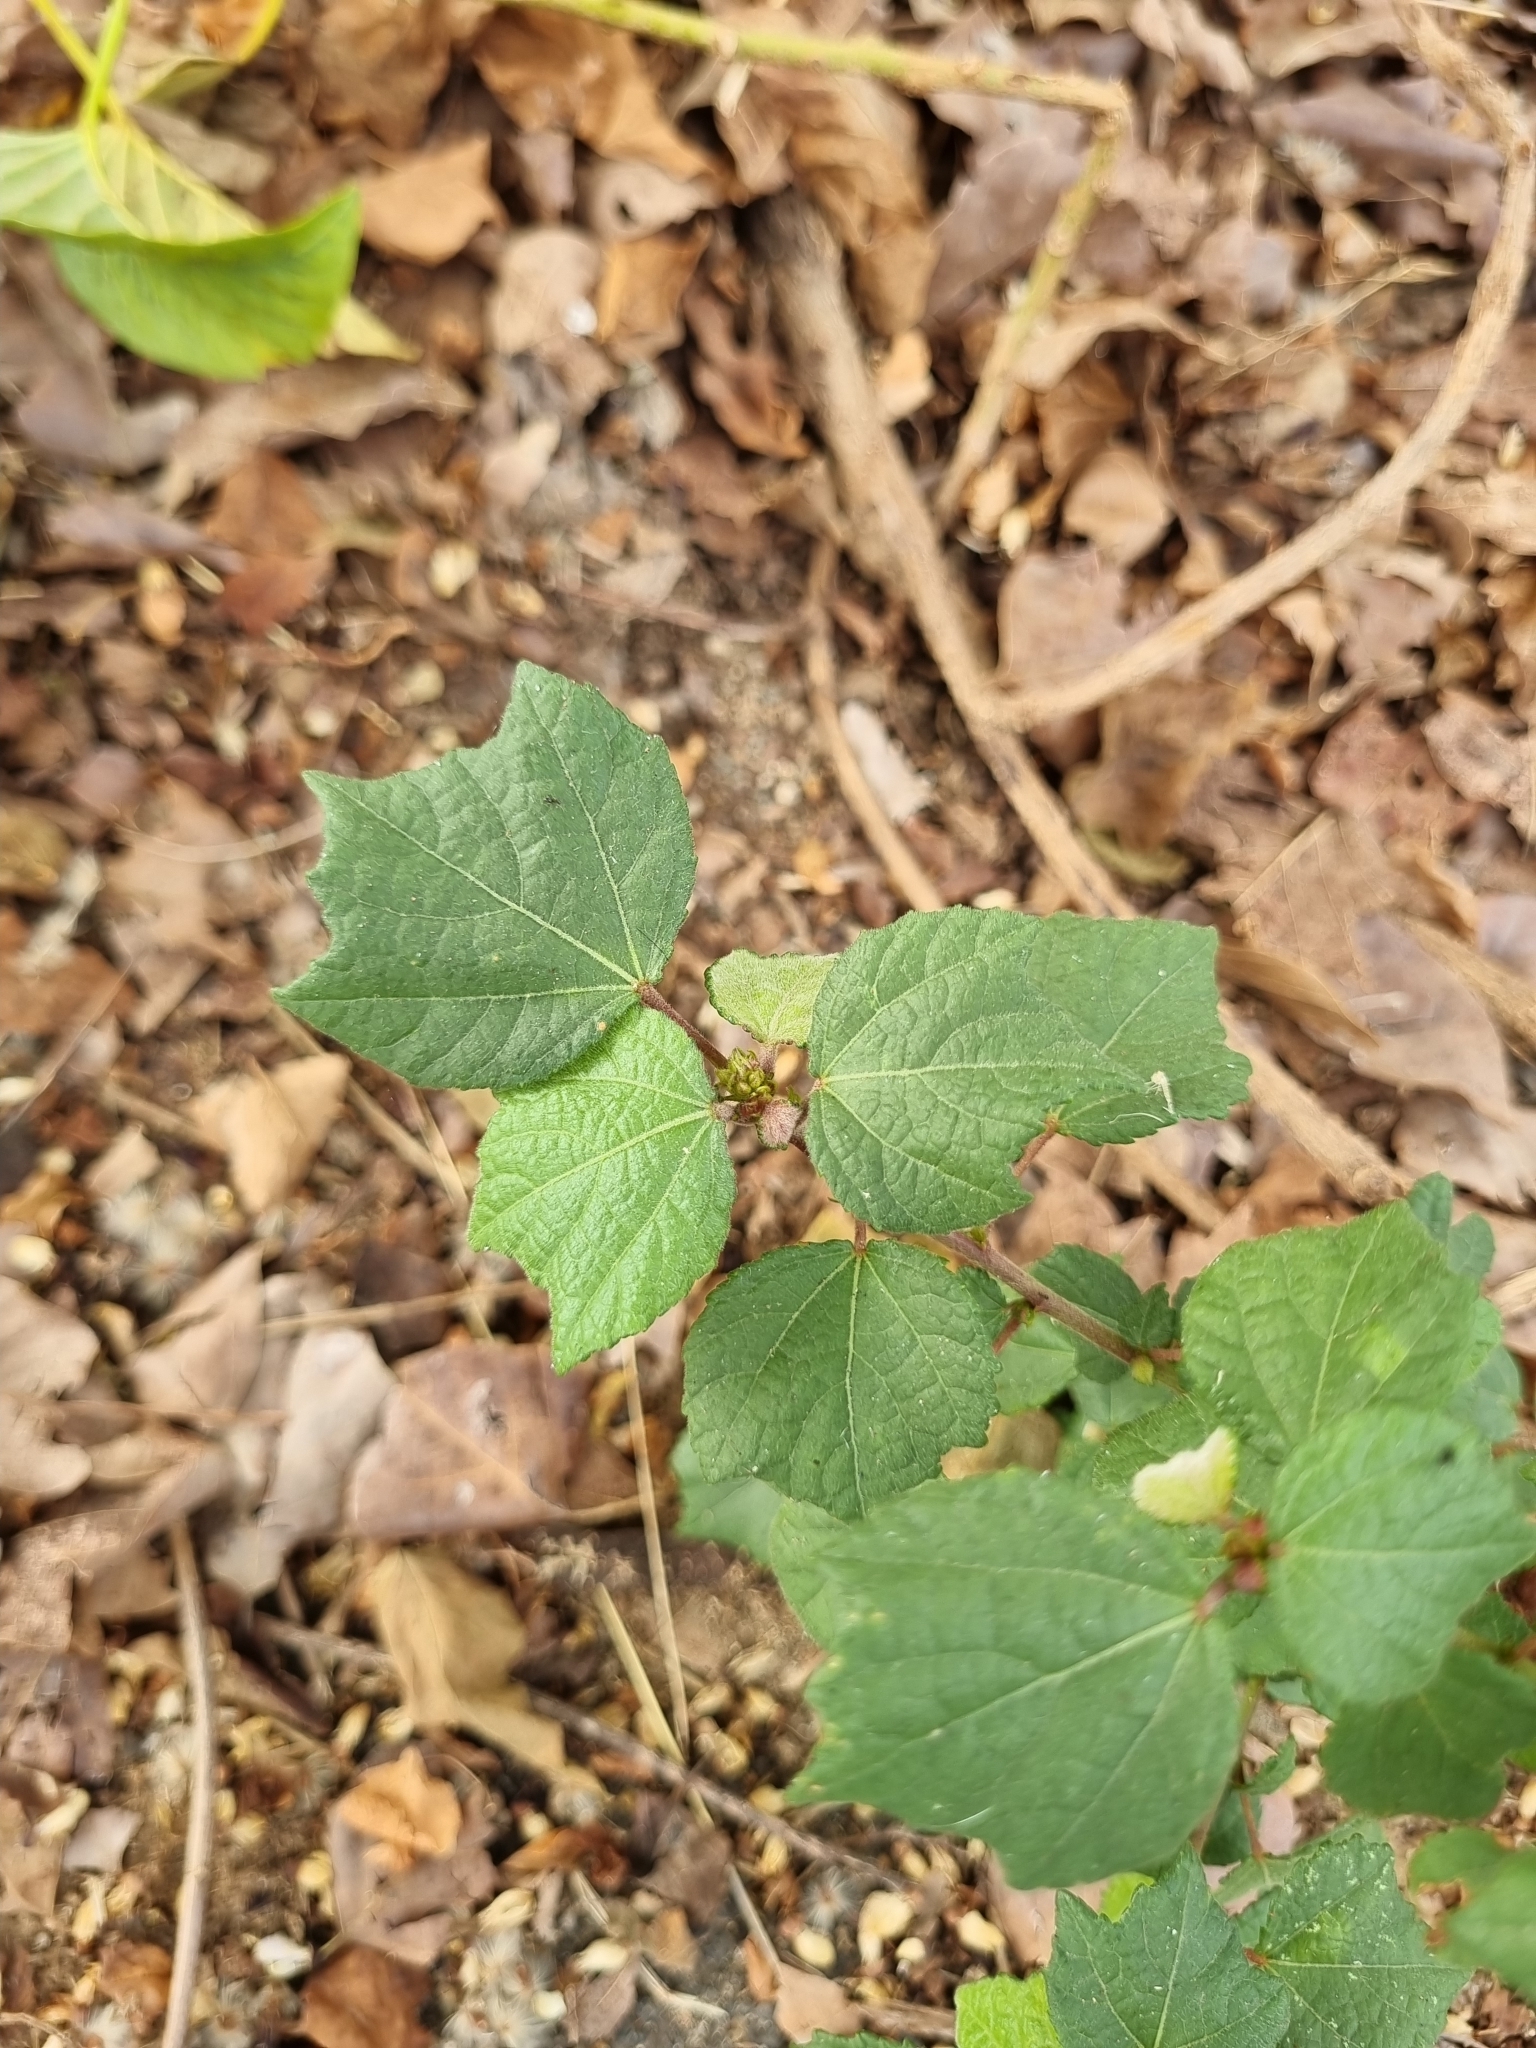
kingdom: Plantae
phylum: Tracheophyta
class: Magnoliopsida
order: Malvales
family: Malvaceae
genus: Triumfetta
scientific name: Triumfetta rhomboidea
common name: Diamond burbark
